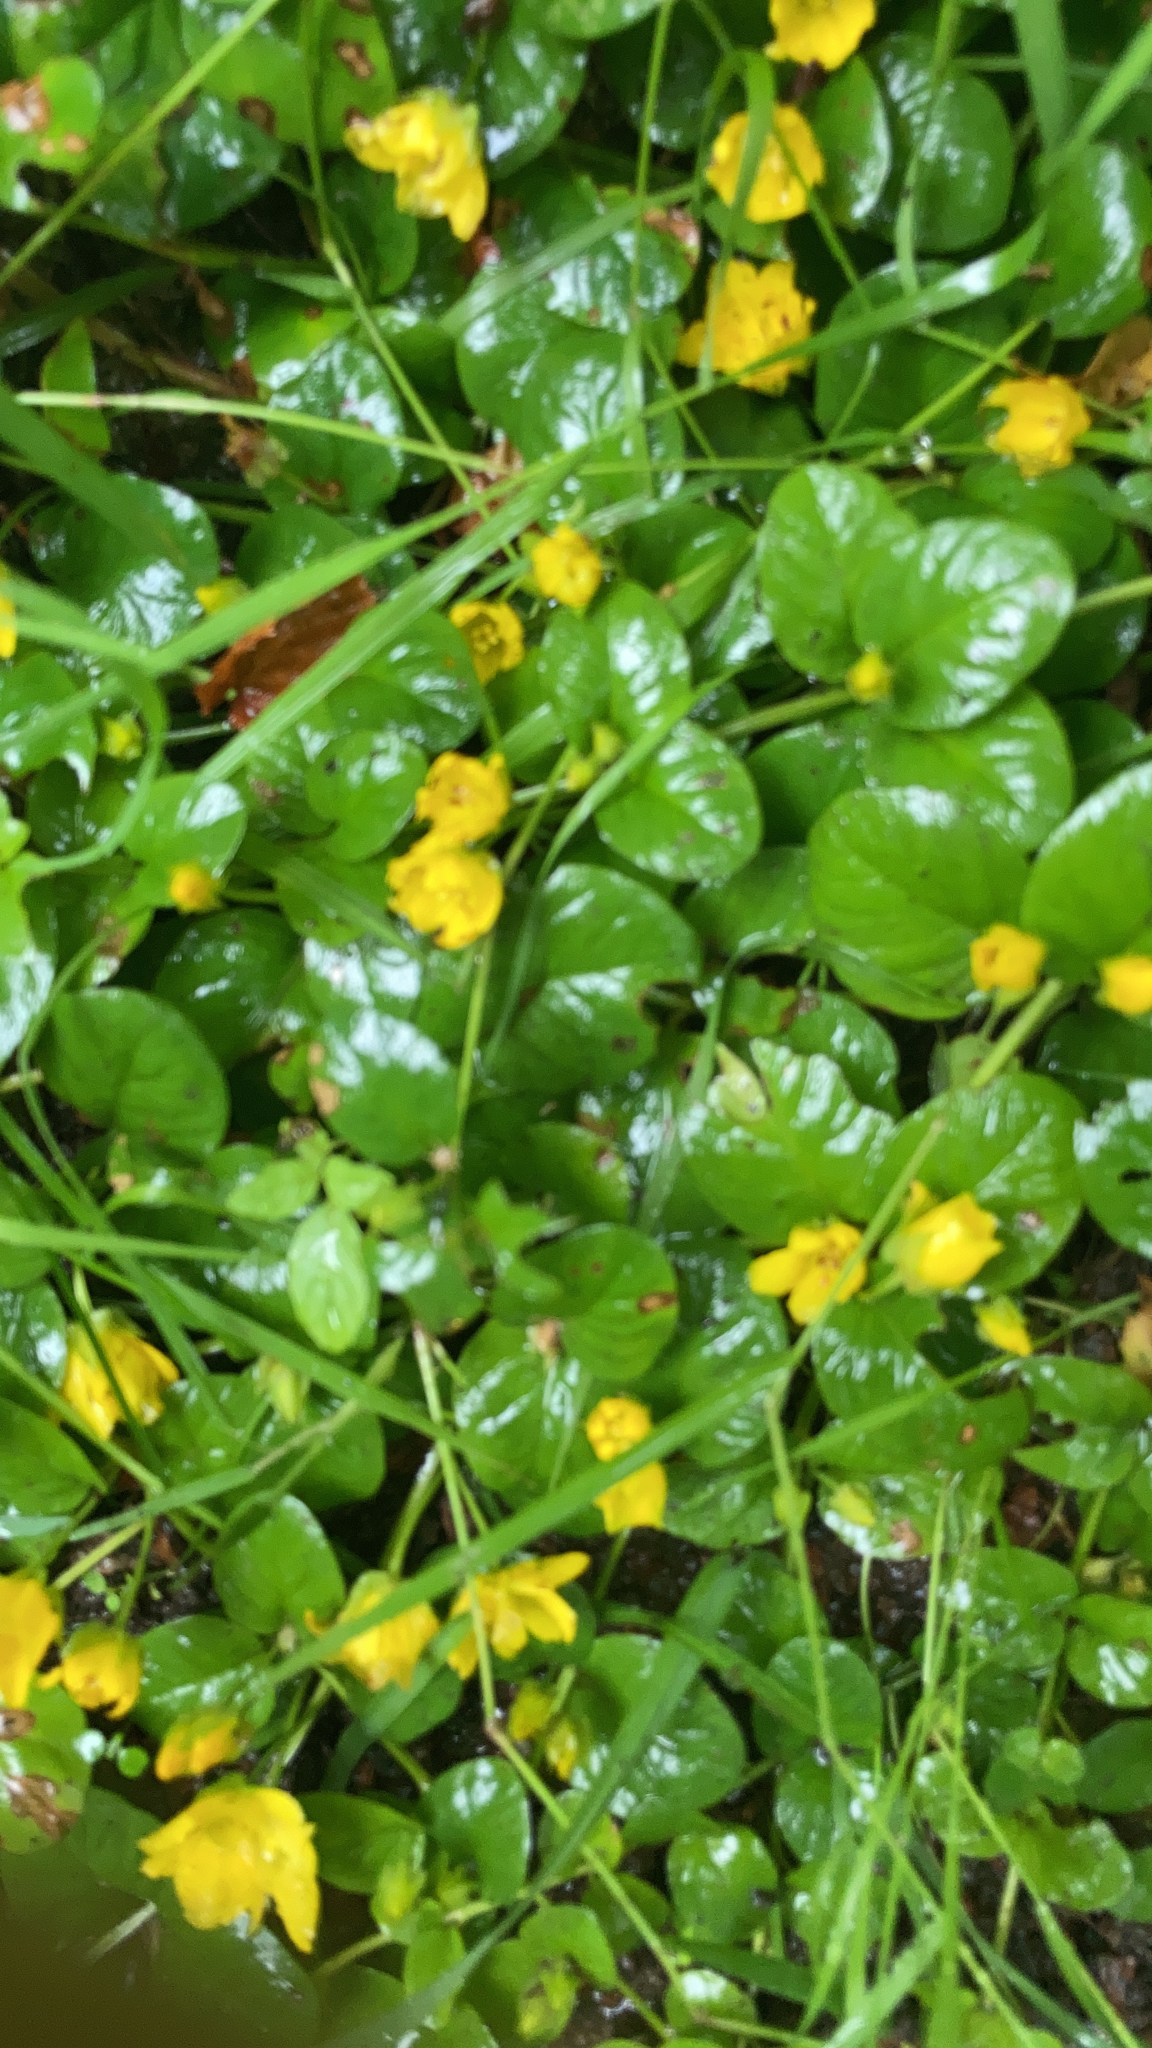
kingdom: Plantae
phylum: Tracheophyta
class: Magnoliopsida
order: Ericales
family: Primulaceae
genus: Lysimachia
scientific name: Lysimachia nummularia
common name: Moneywort
